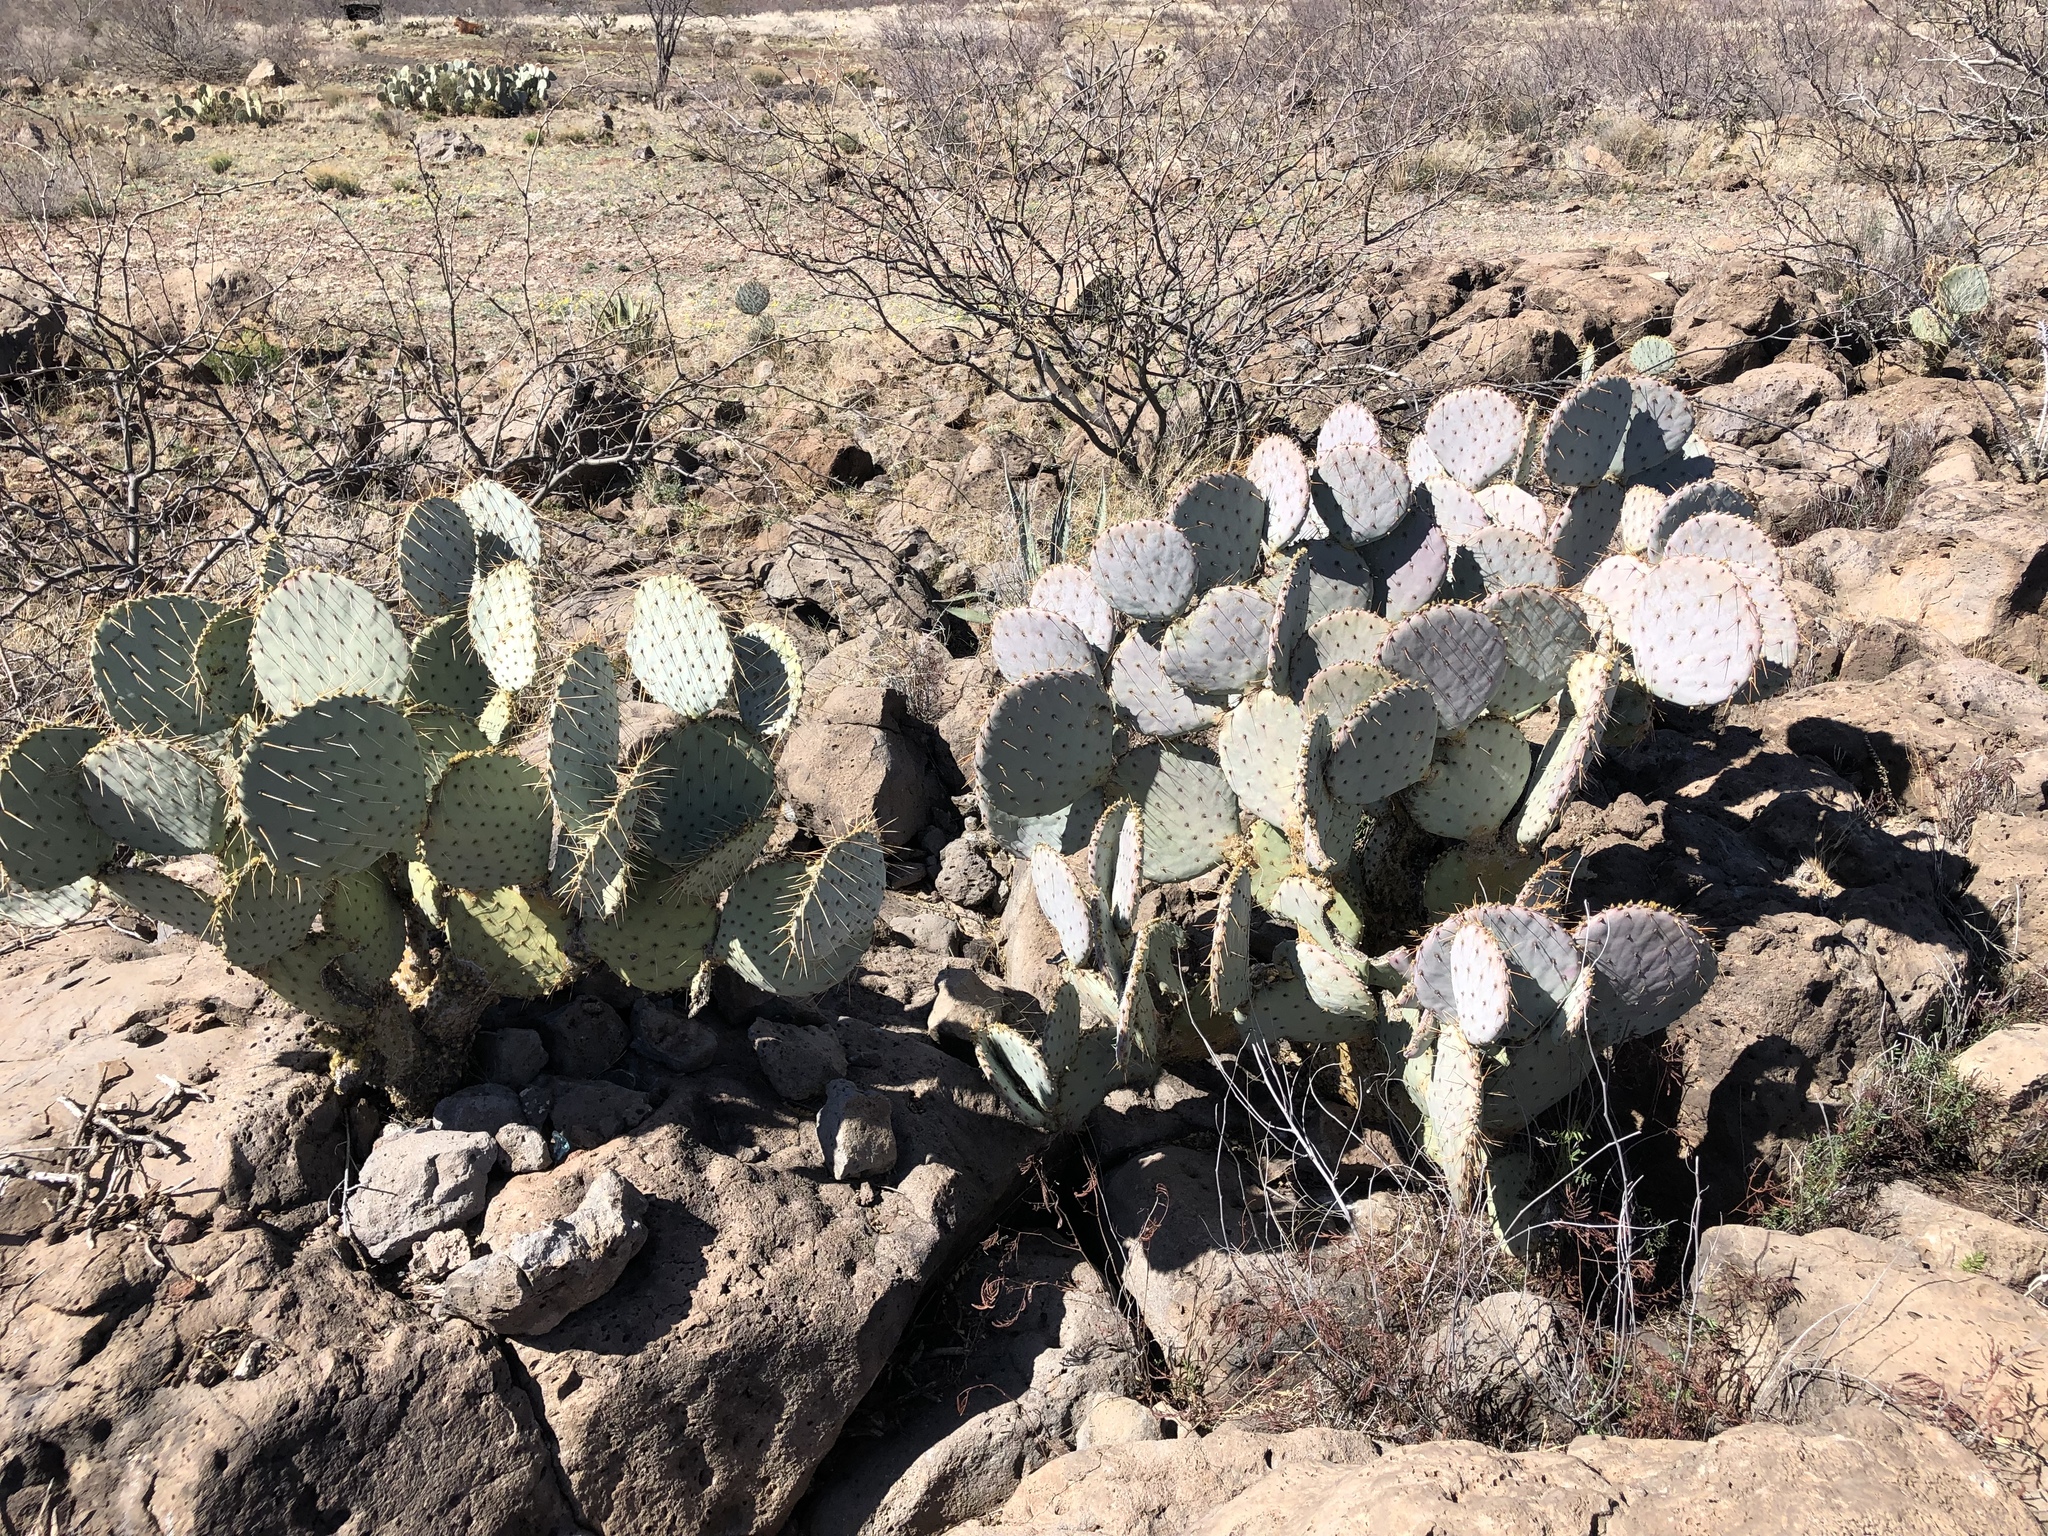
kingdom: Plantae
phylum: Tracheophyta
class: Magnoliopsida
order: Caryophyllales
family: Cactaceae
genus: Opuntia
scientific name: Opuntia gosseliniana
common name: Violet prickly-pear
